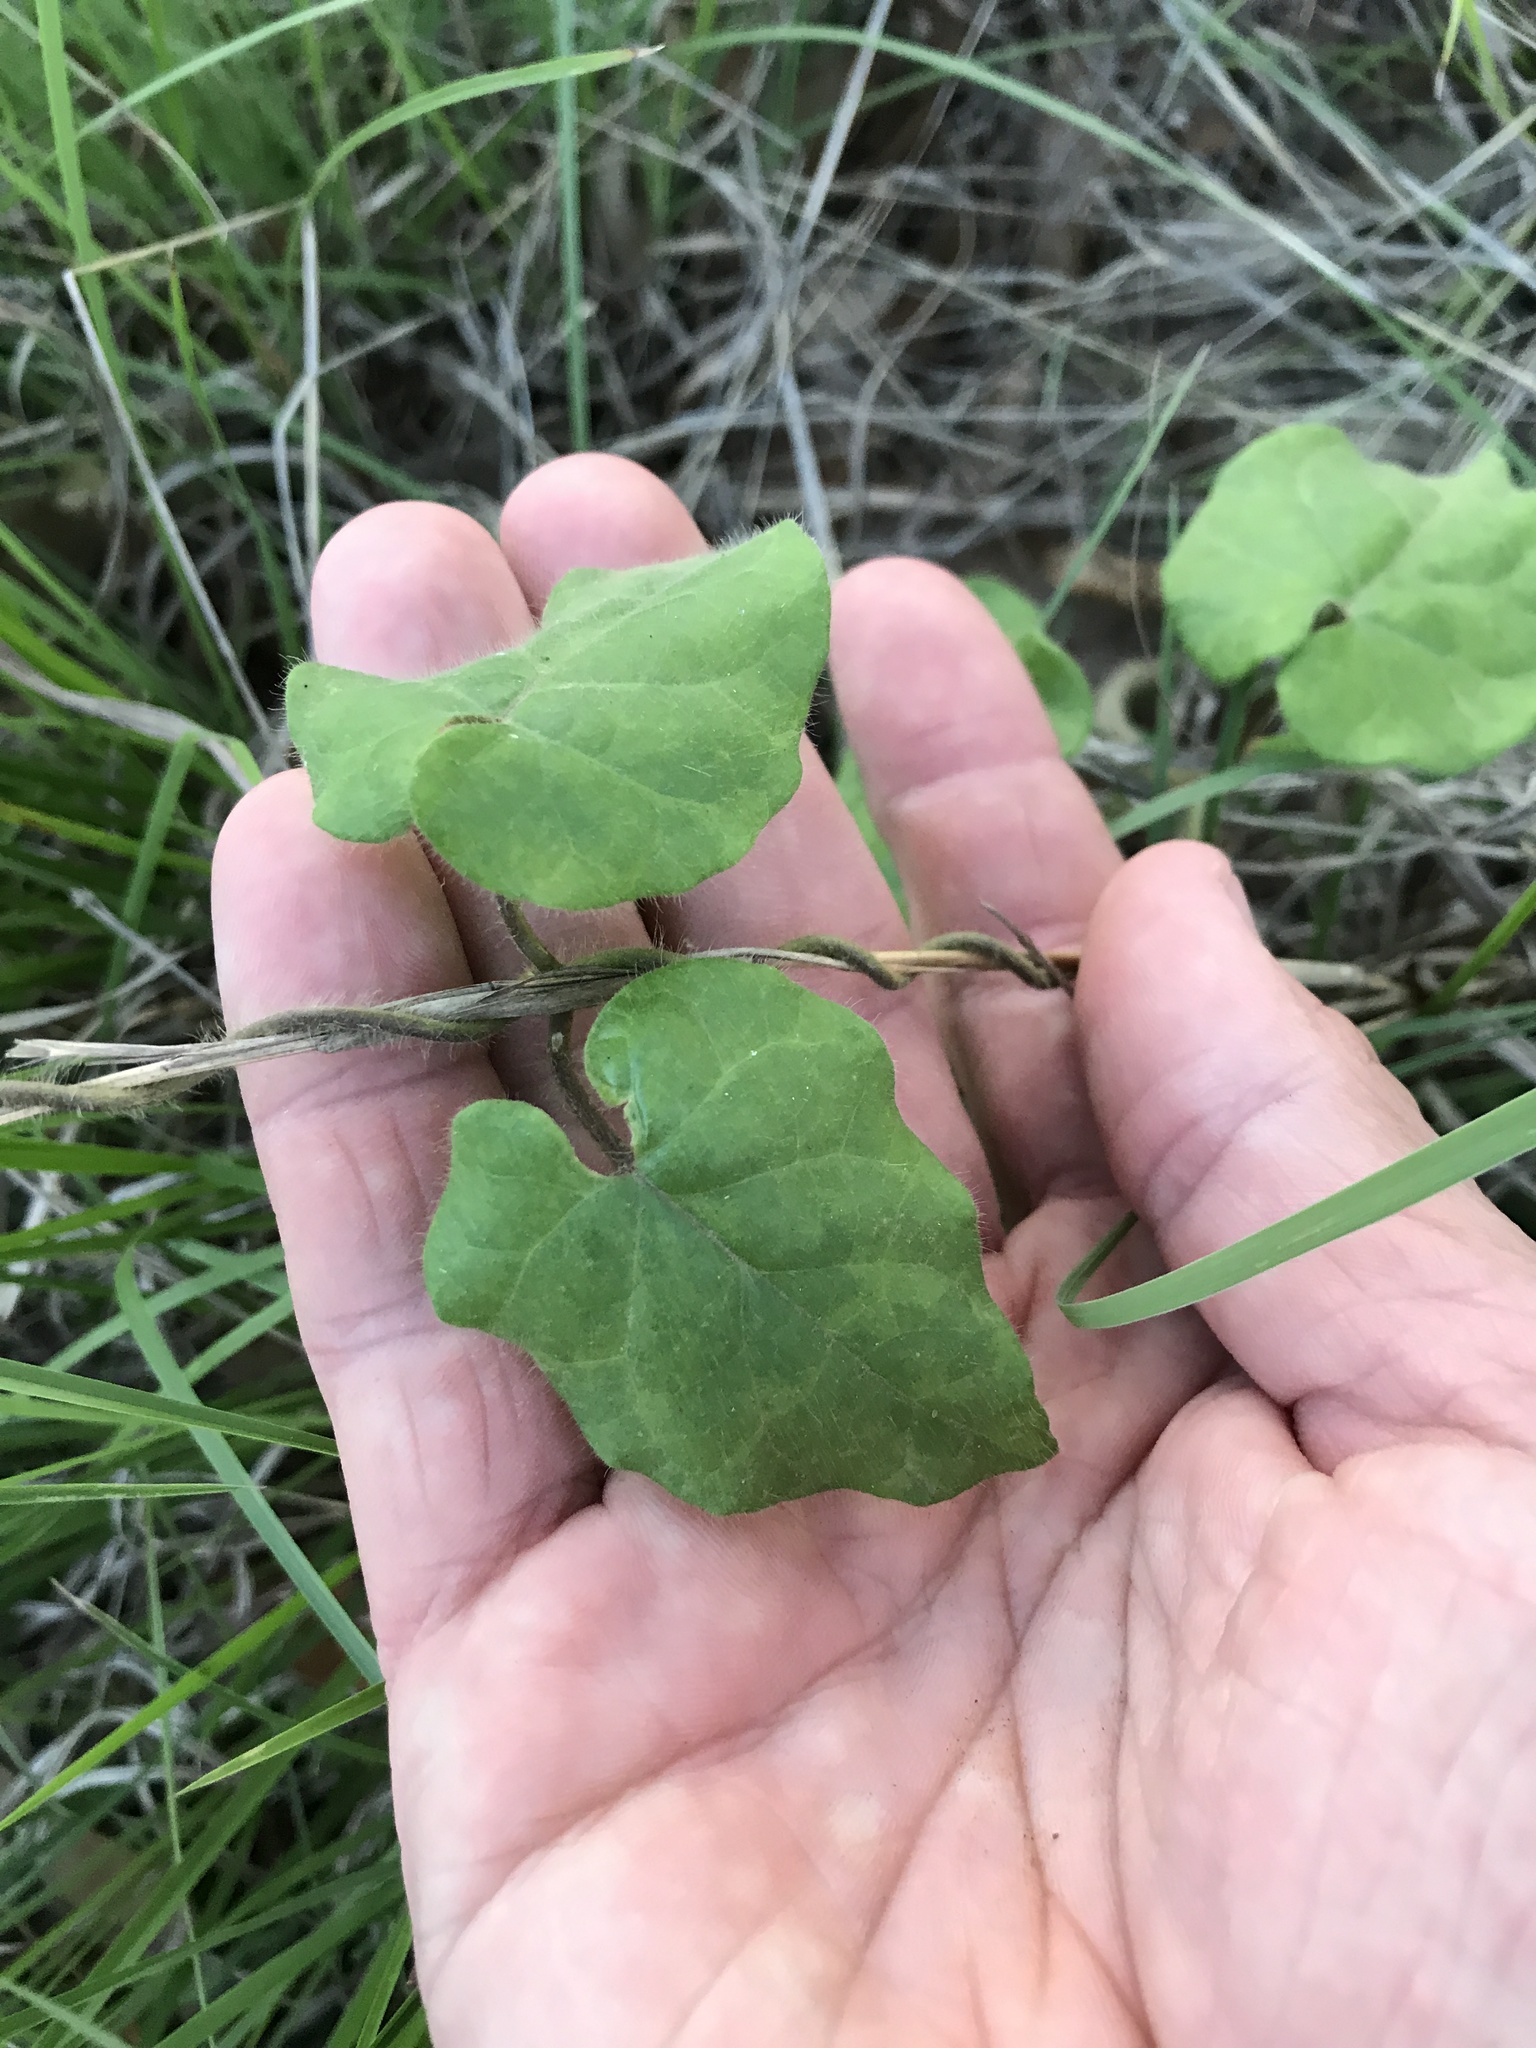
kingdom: Plantae
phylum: Tracheophyta
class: Magnoliopsida
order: Gentianales
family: Apocynaceae
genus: Dictyanthus
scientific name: Dictyanthus reticulatus
